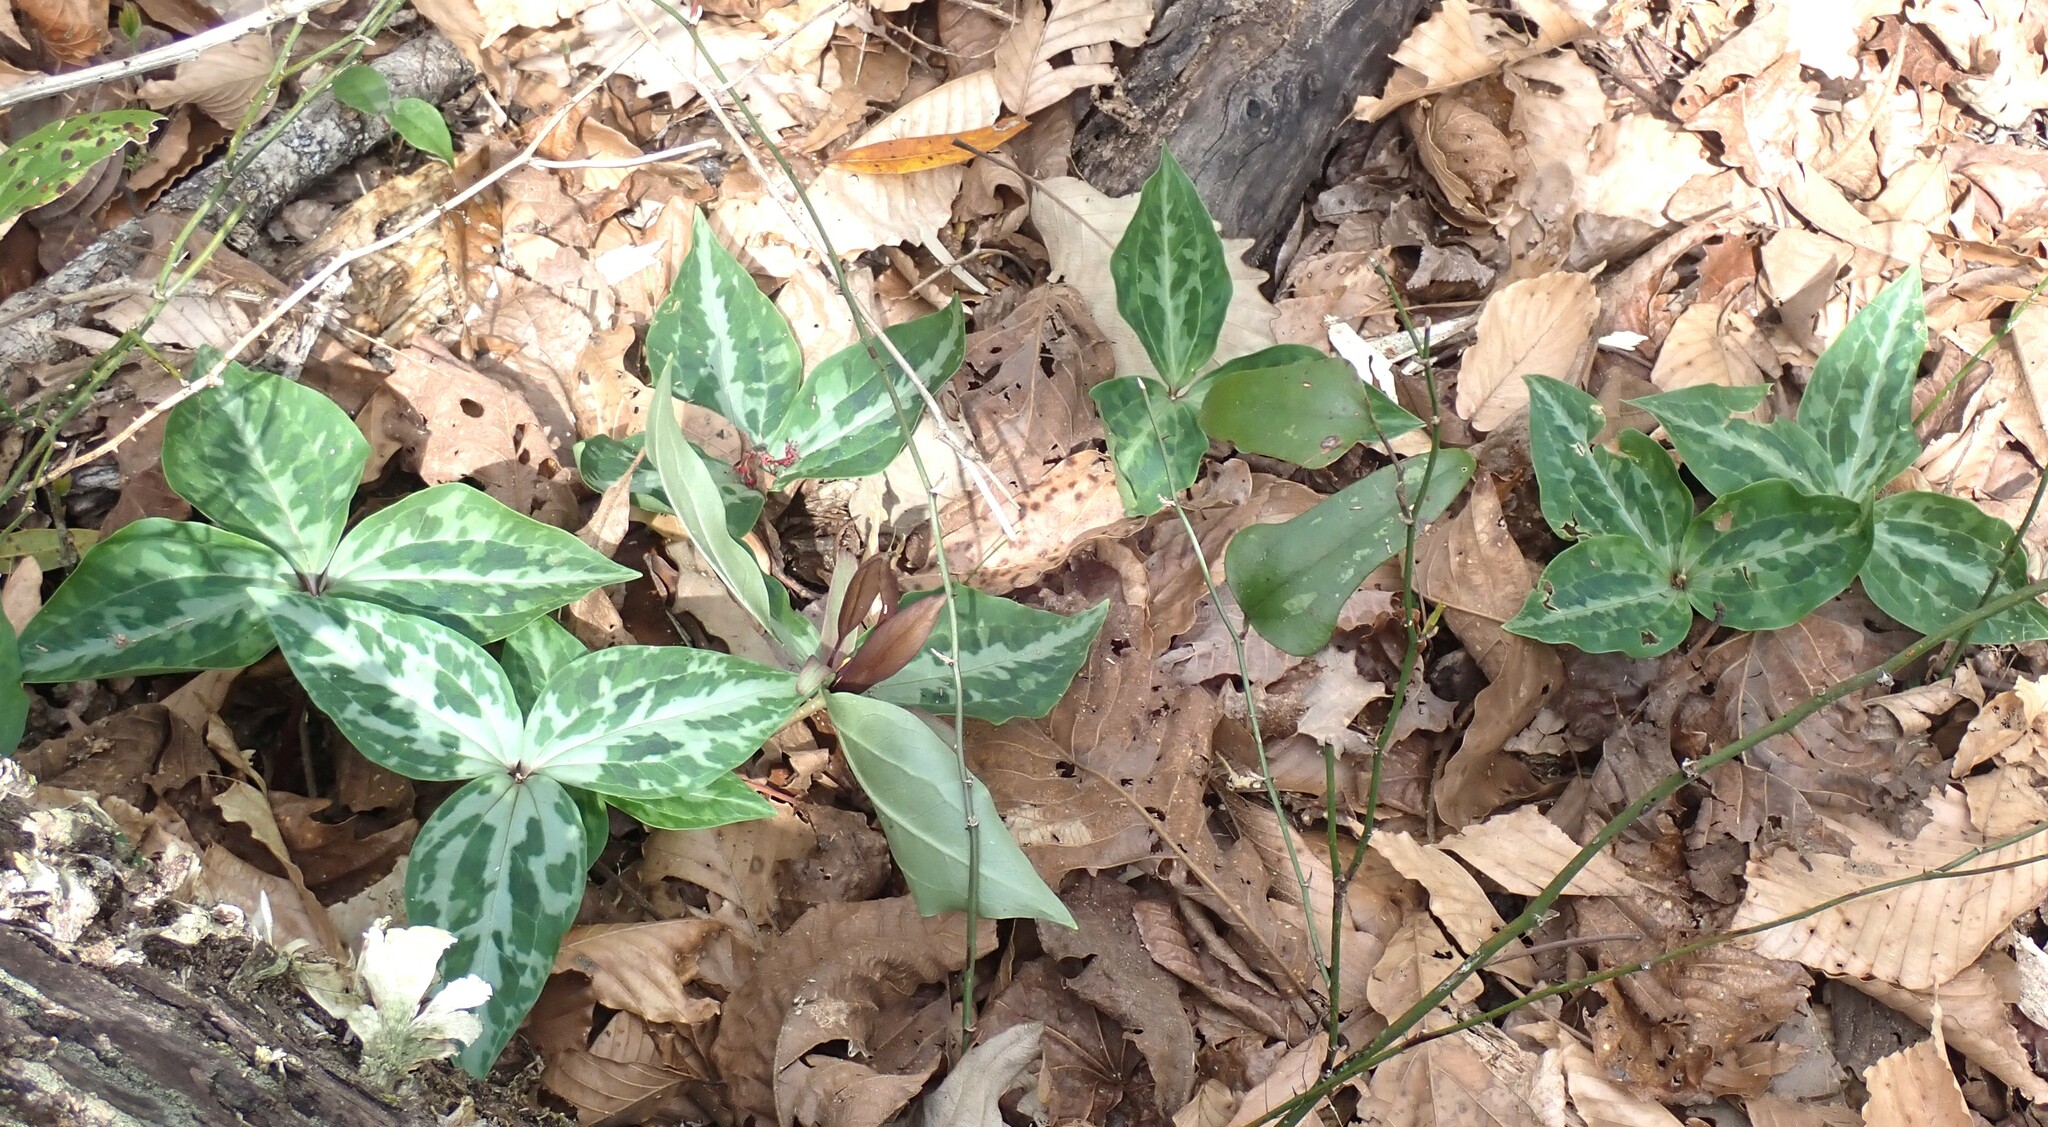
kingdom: Plantae
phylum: Tracheophyta
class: Liliopsida
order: Liliales
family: Melanthiaceae
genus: Trillium
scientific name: Trillium underwoodii
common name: Longbract wakerobin
